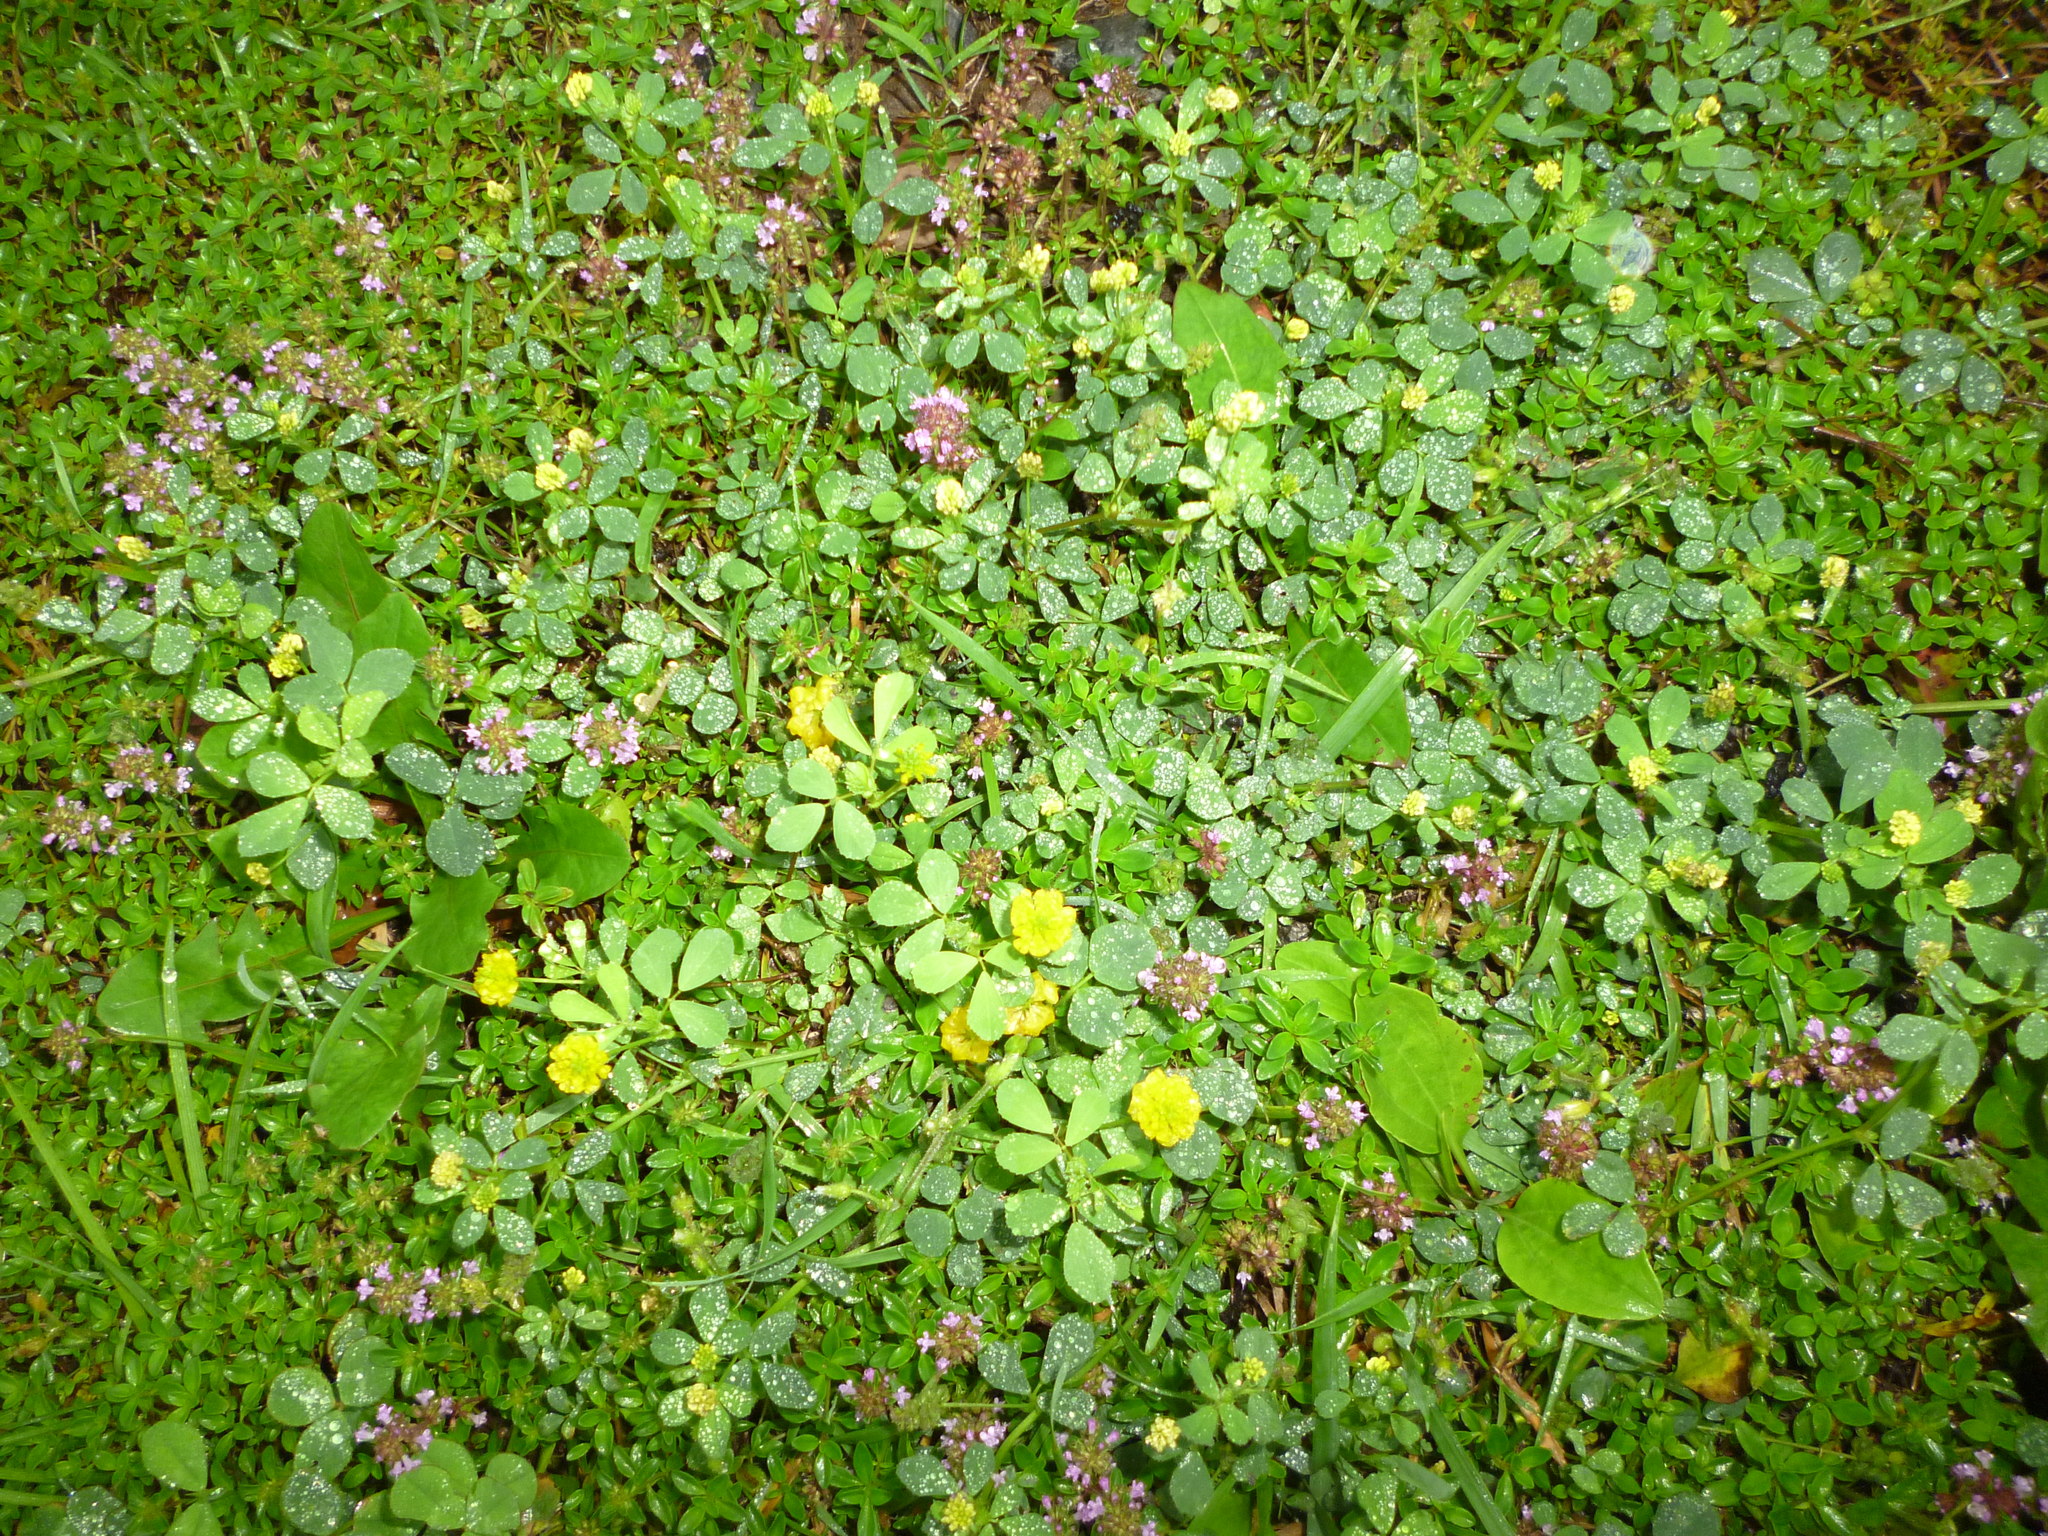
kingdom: Plantae
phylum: Tracheophyta
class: Magnoliopsida
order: Fabales
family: Fabaceae
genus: Trifolium
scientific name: Trifolium campestre
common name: Field clover
